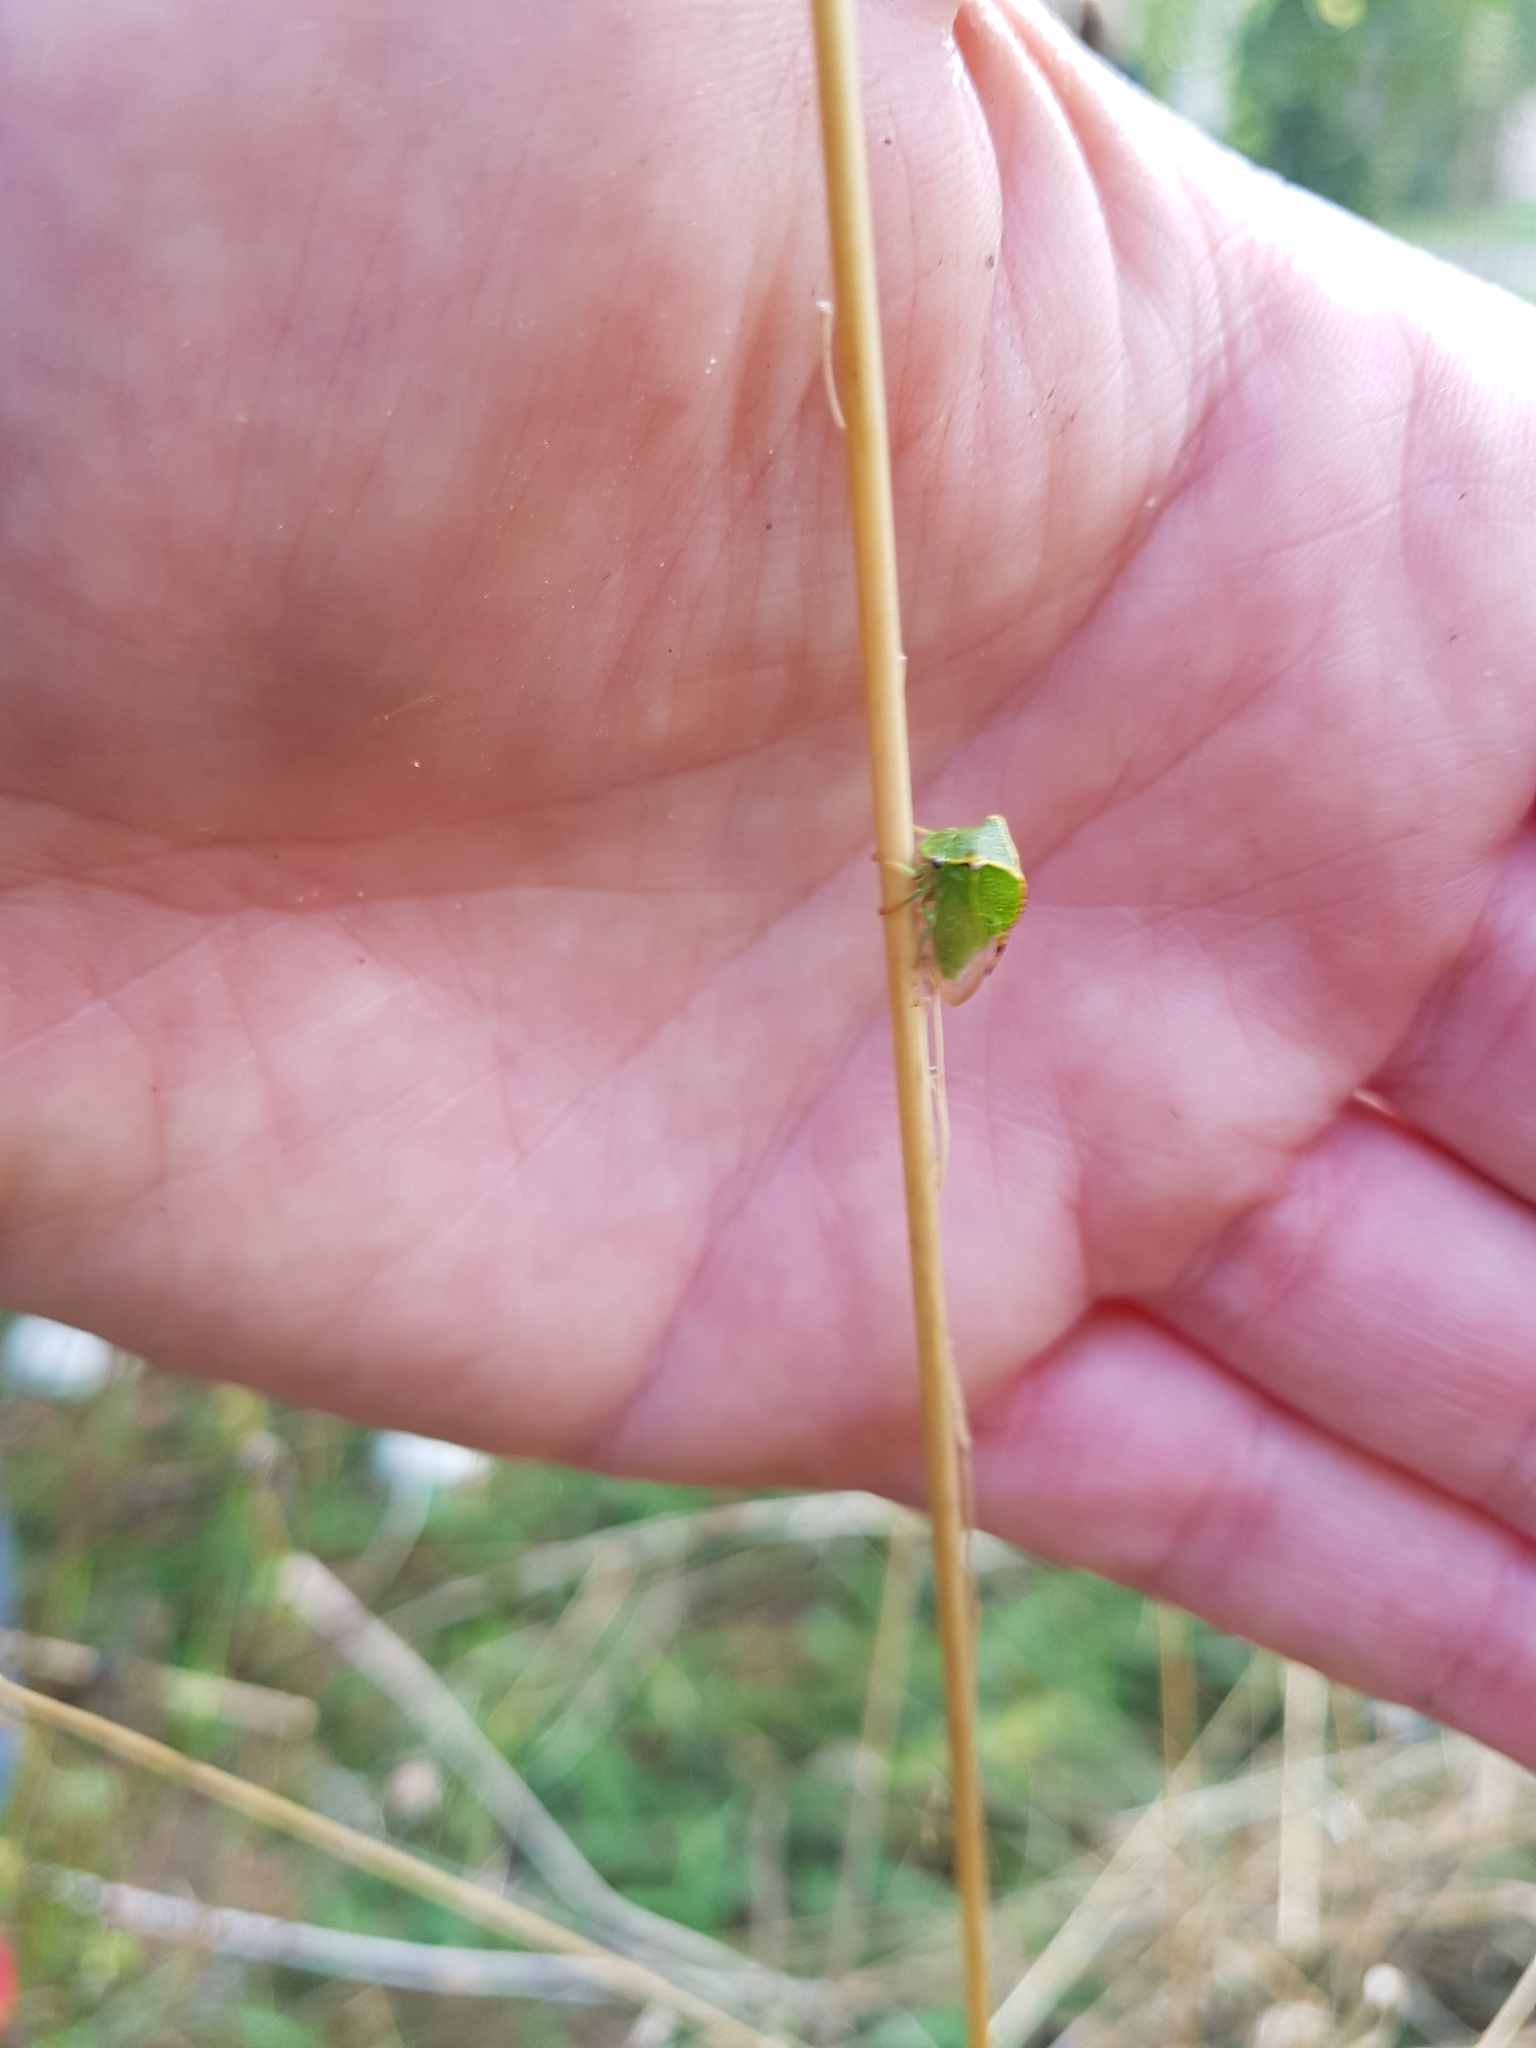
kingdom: Animalia
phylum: Arthropoda
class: Insecta
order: Hemiptera
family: Membracidae
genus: Stictocephala
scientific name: Stictocephala bisonia
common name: American buffalo treehopper
